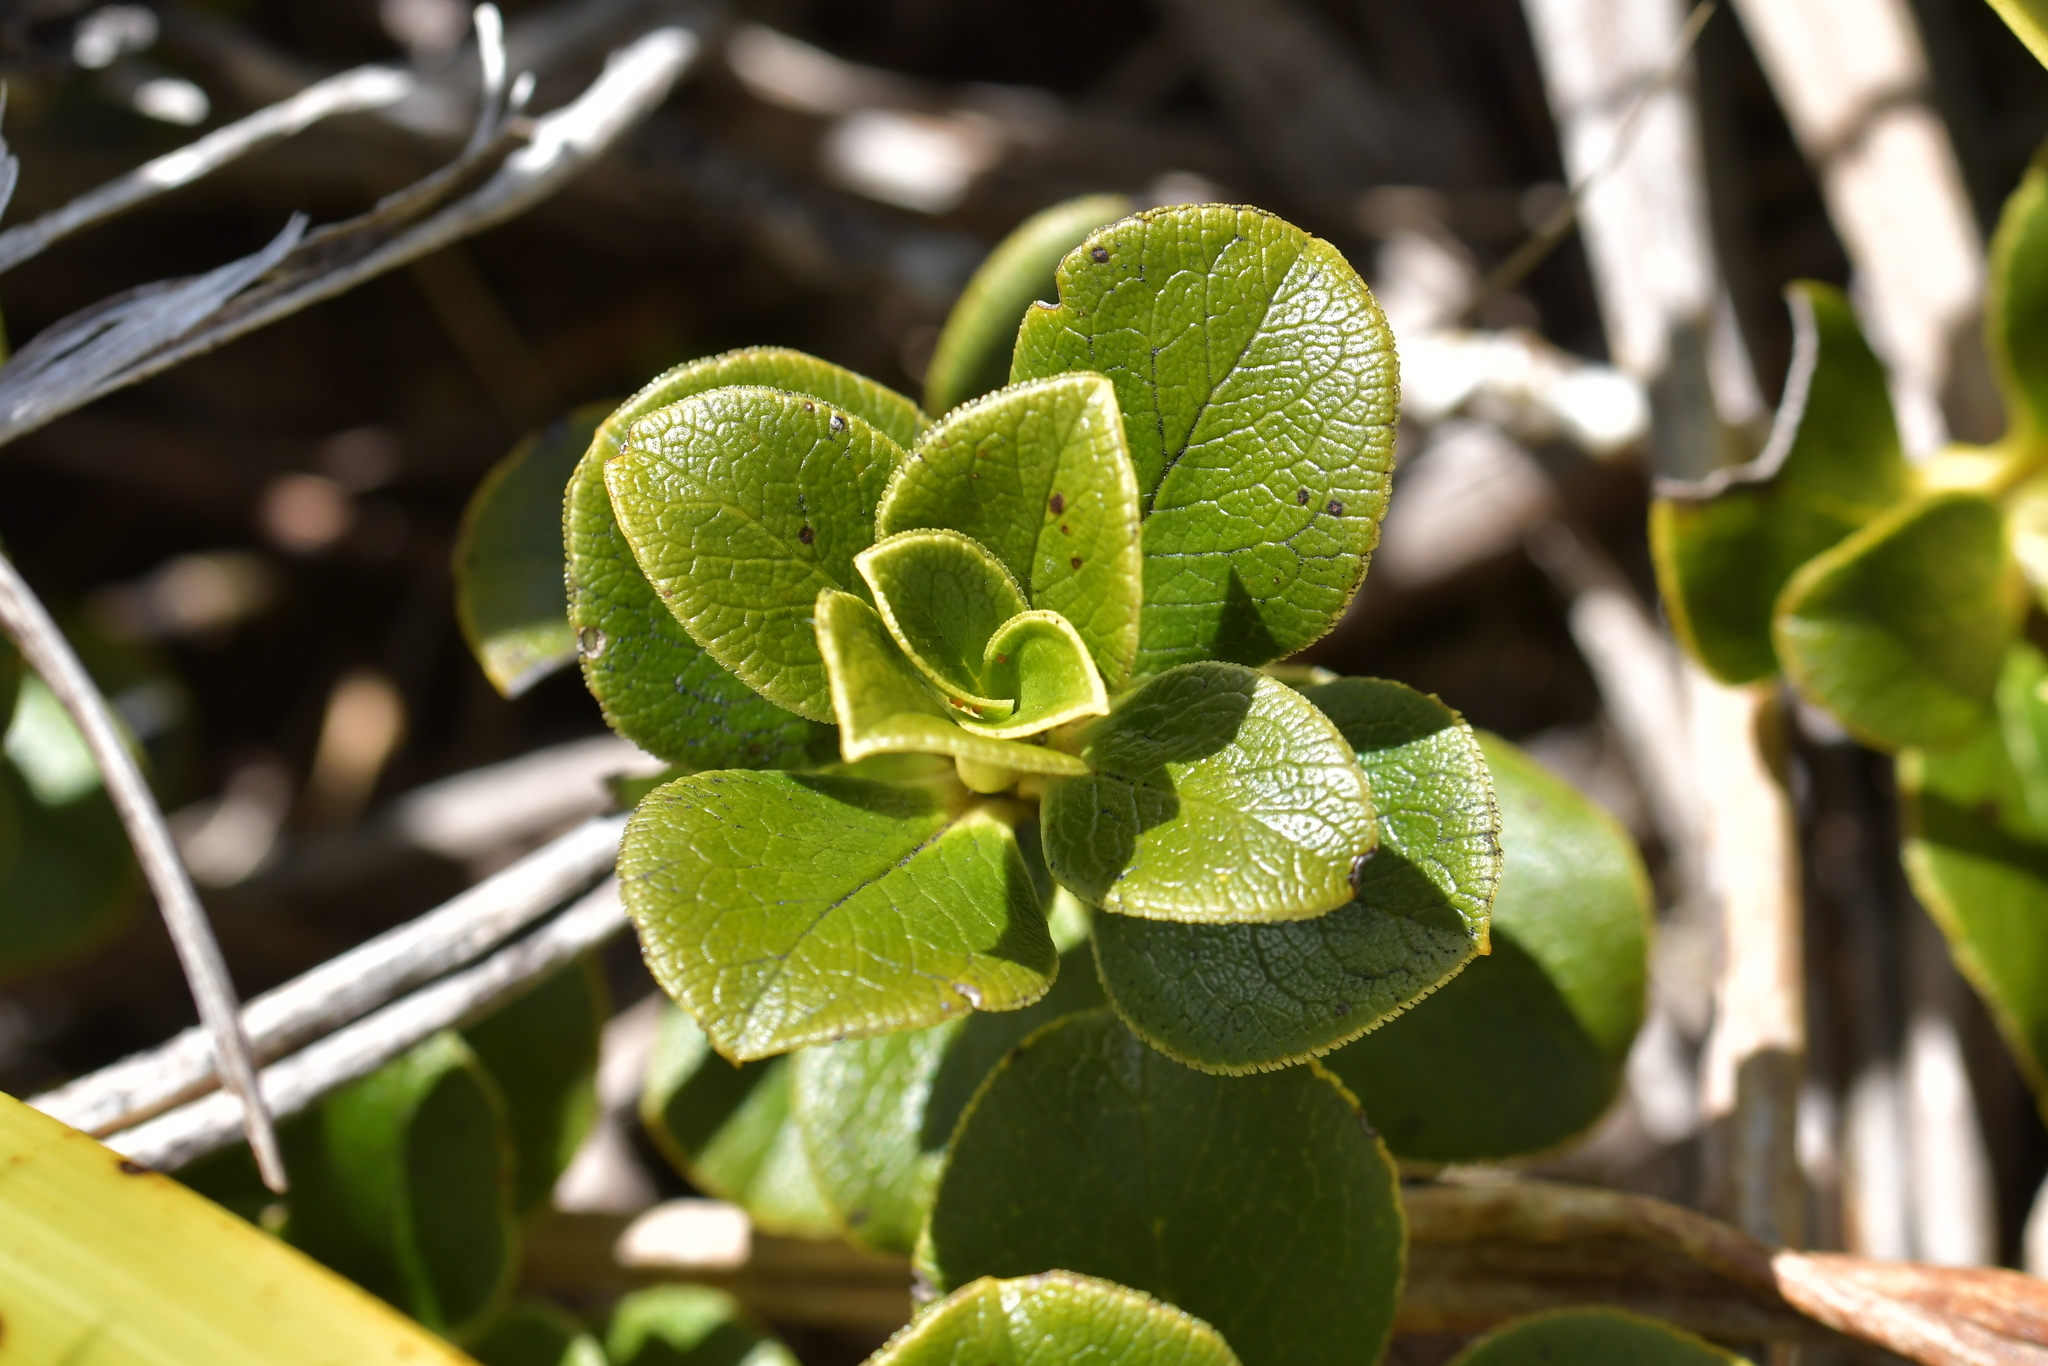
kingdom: Plantae
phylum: Tracheophyta
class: Magnoliopsida
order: Gentianales
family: Rubiaceae
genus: Coprosma
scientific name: Coprosma serrulata
